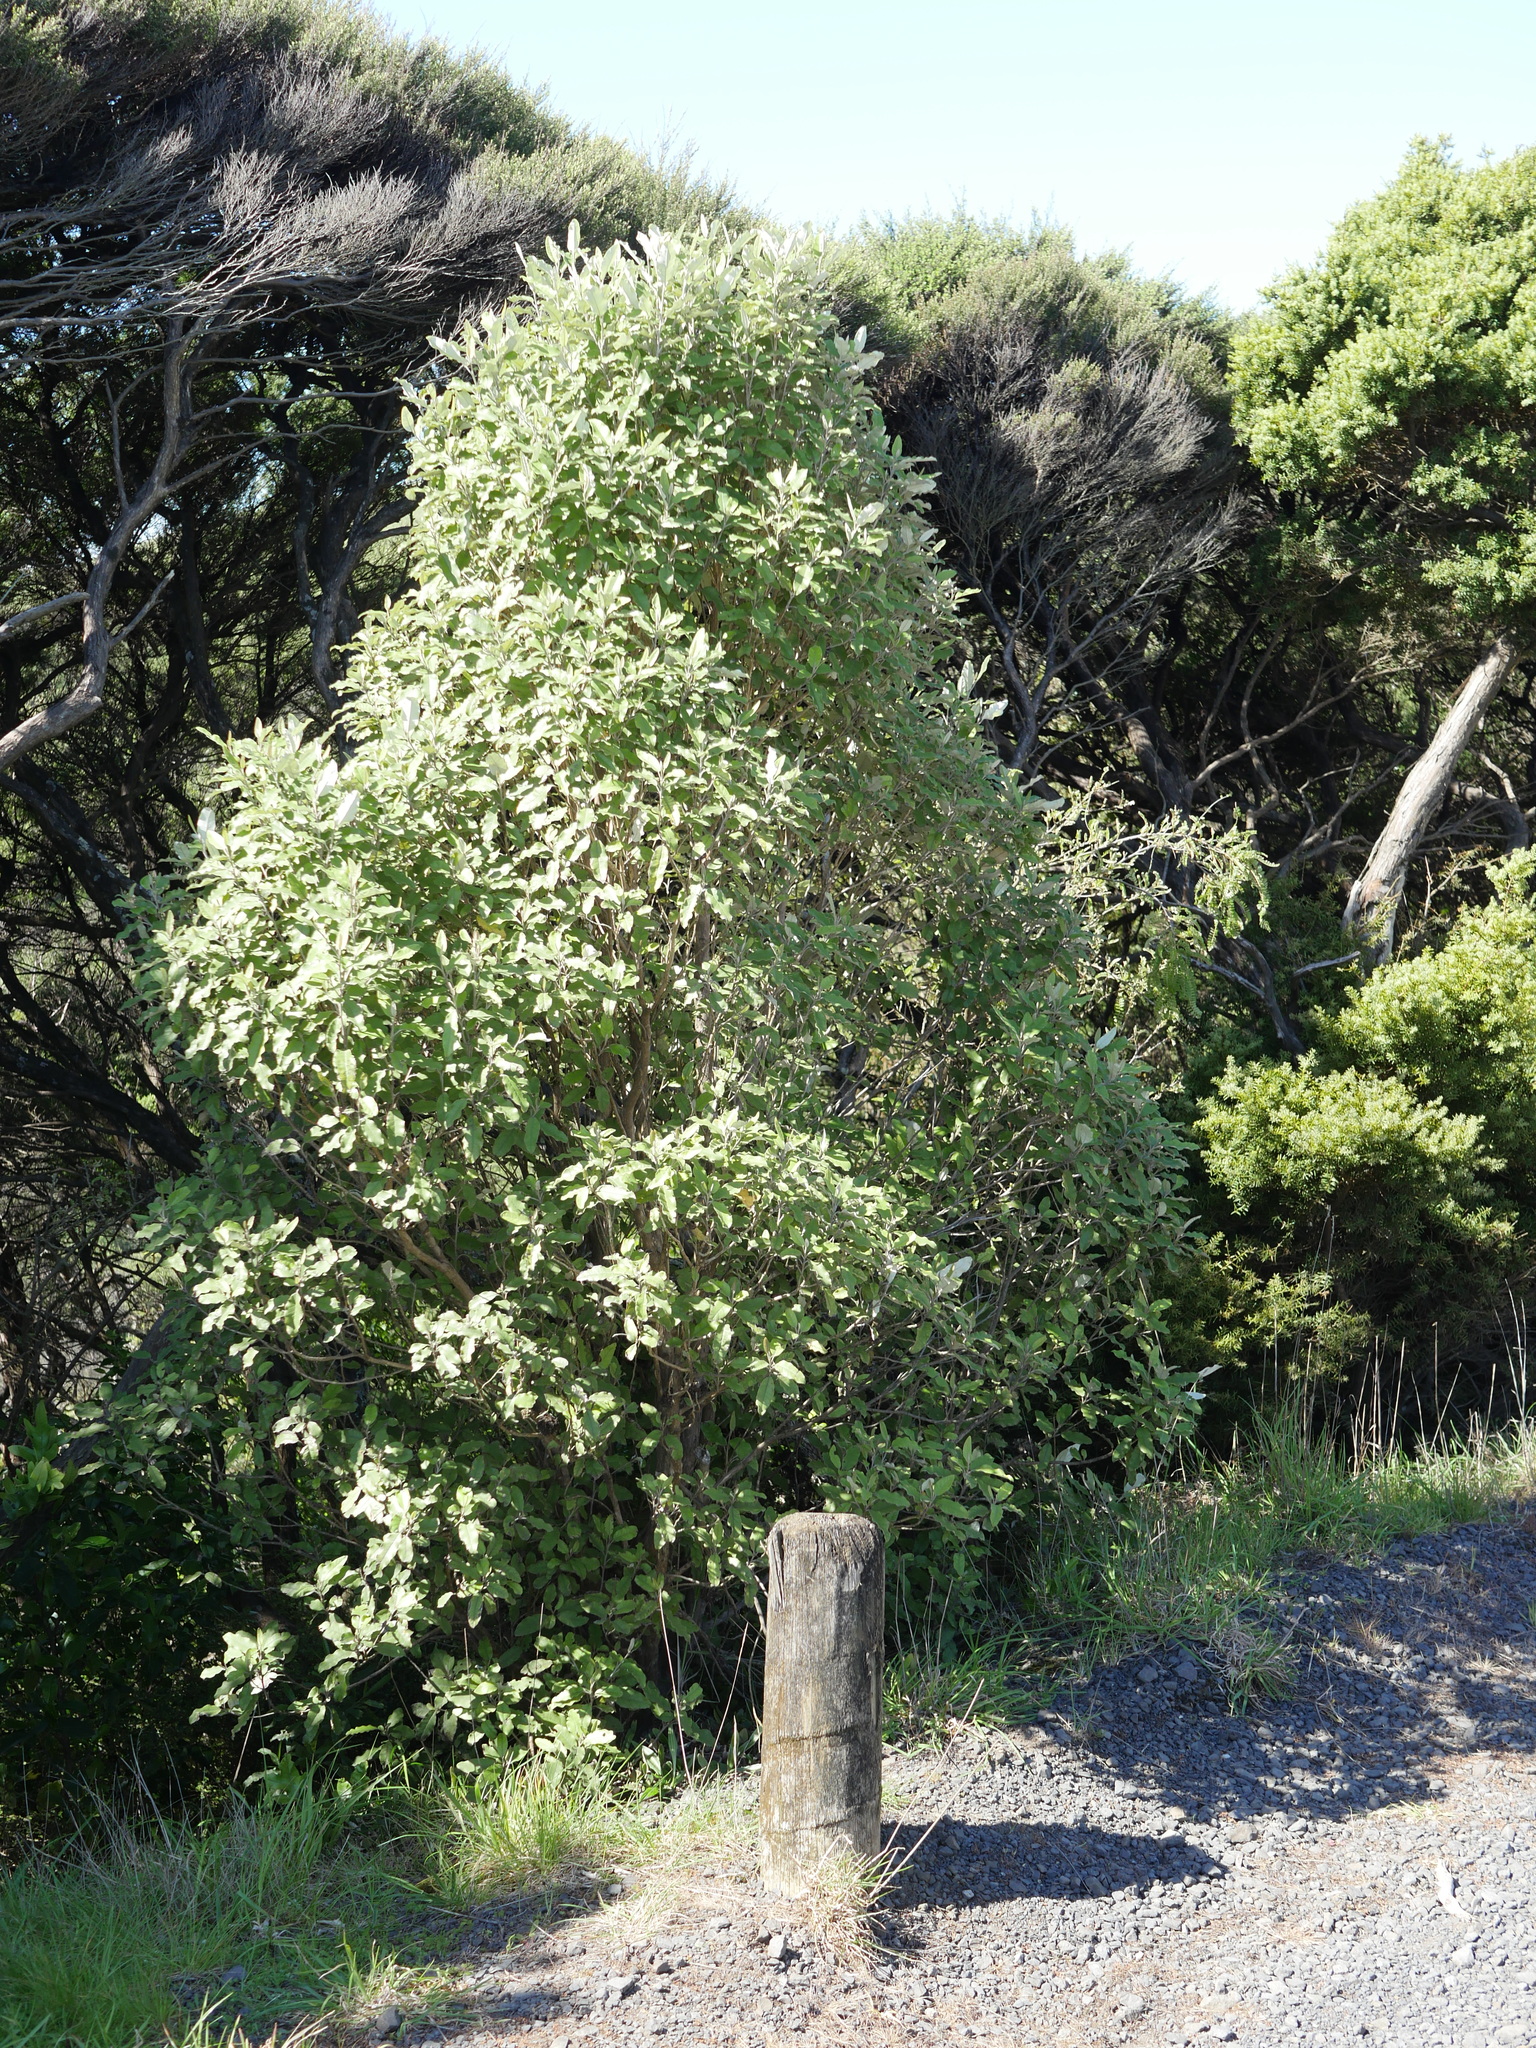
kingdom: Plantae
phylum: Tracheophyta
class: Magnoliopsida
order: Asterales
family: Asteraceae
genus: Olearia
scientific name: Olearia albida
